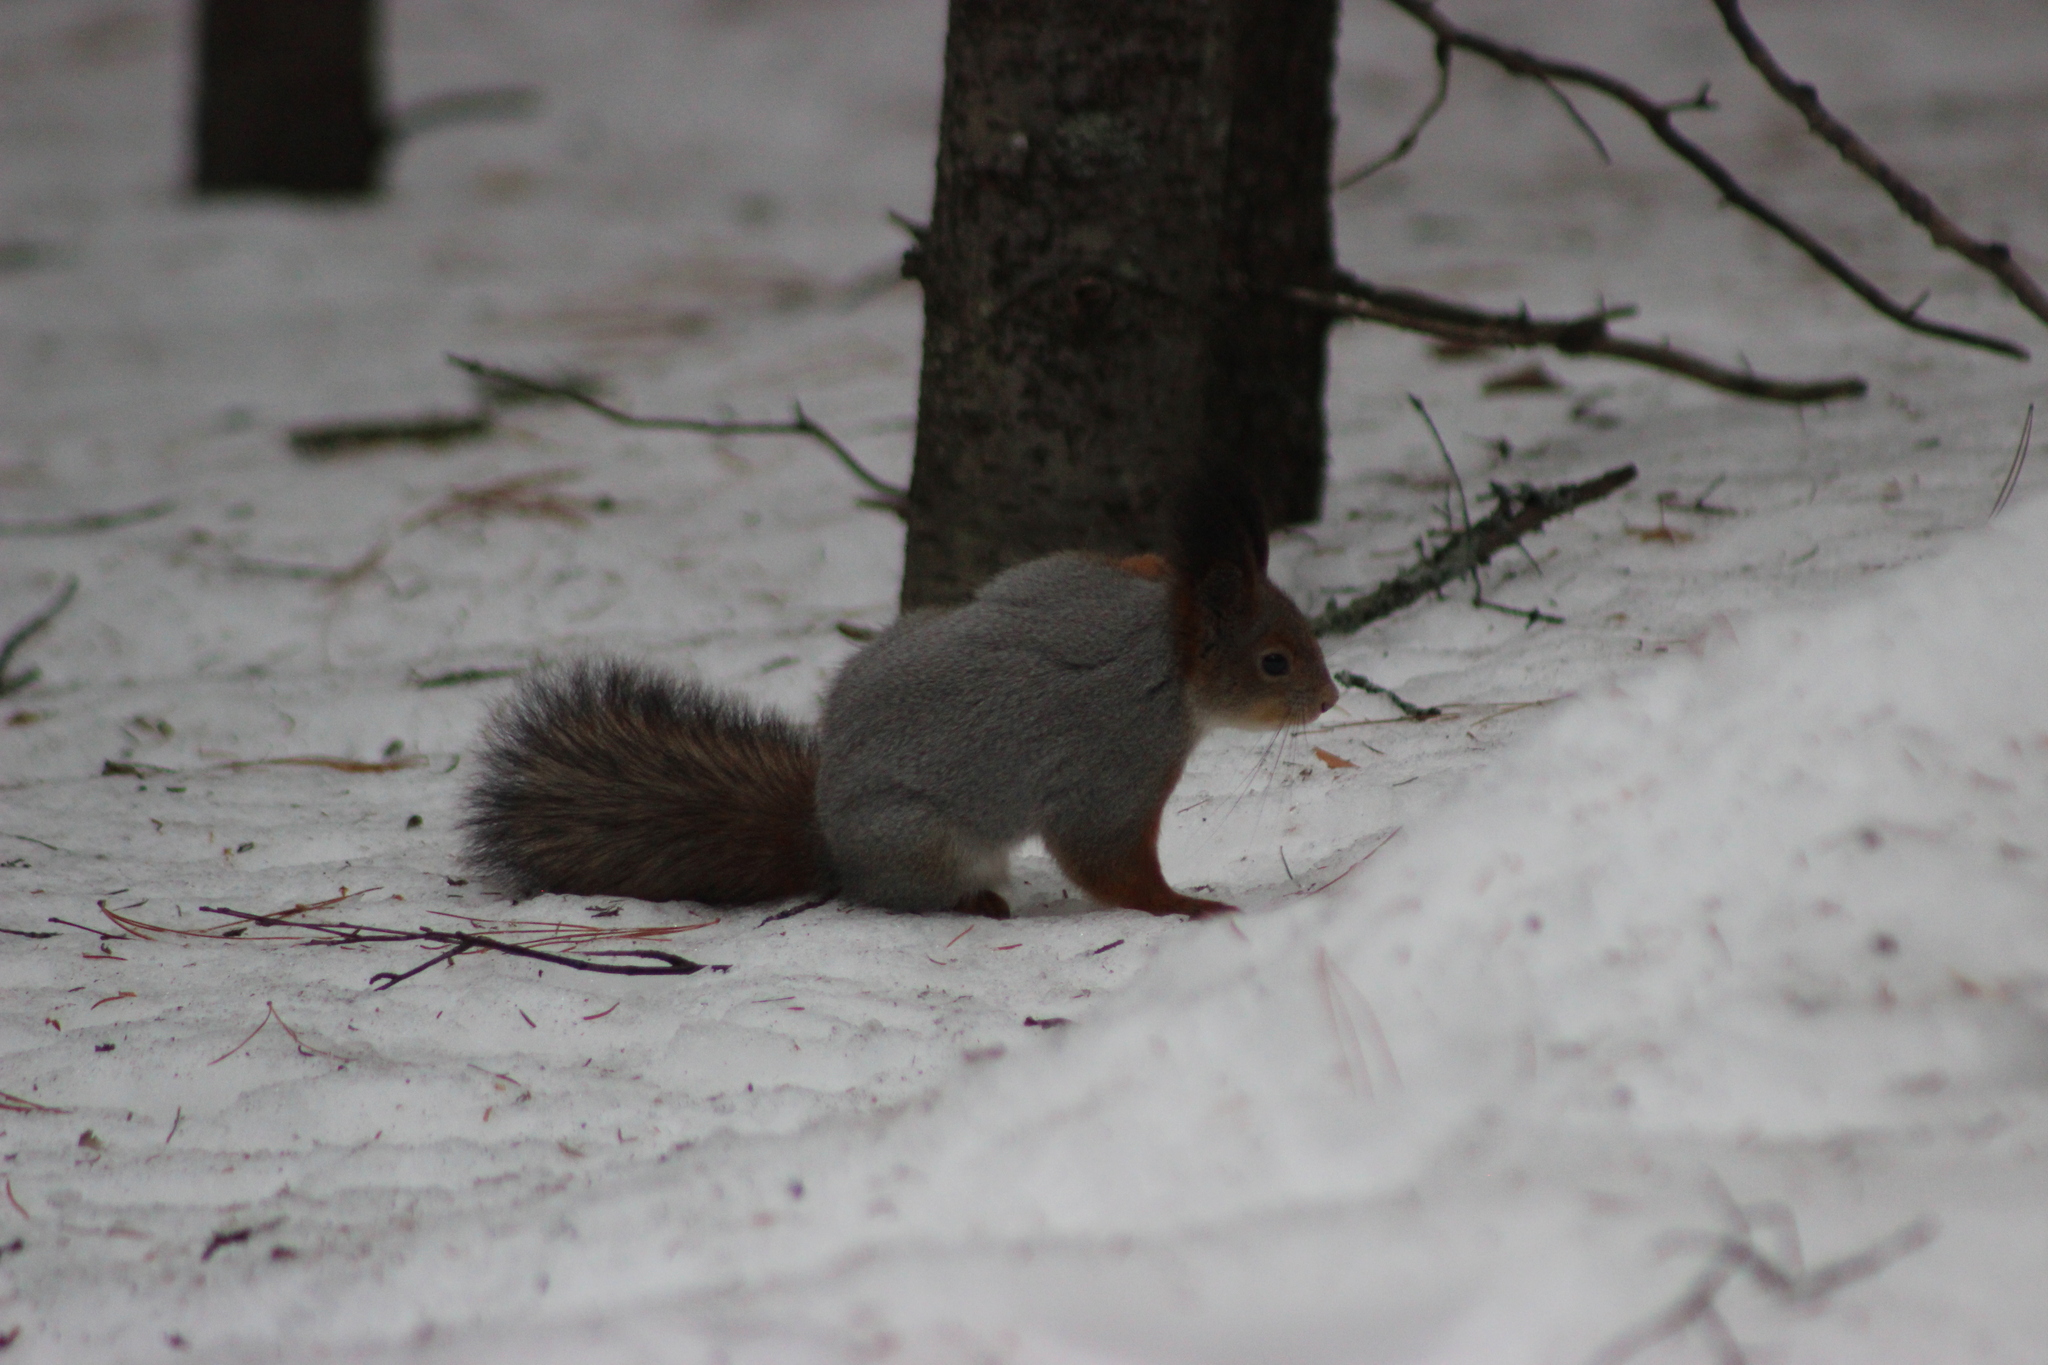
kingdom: Animalia
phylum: Chordata
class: Mammalia
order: Rodentia
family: Sciuridae
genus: Sciurus
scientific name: Sciurus vulgaris
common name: Eurasian red squirrel
